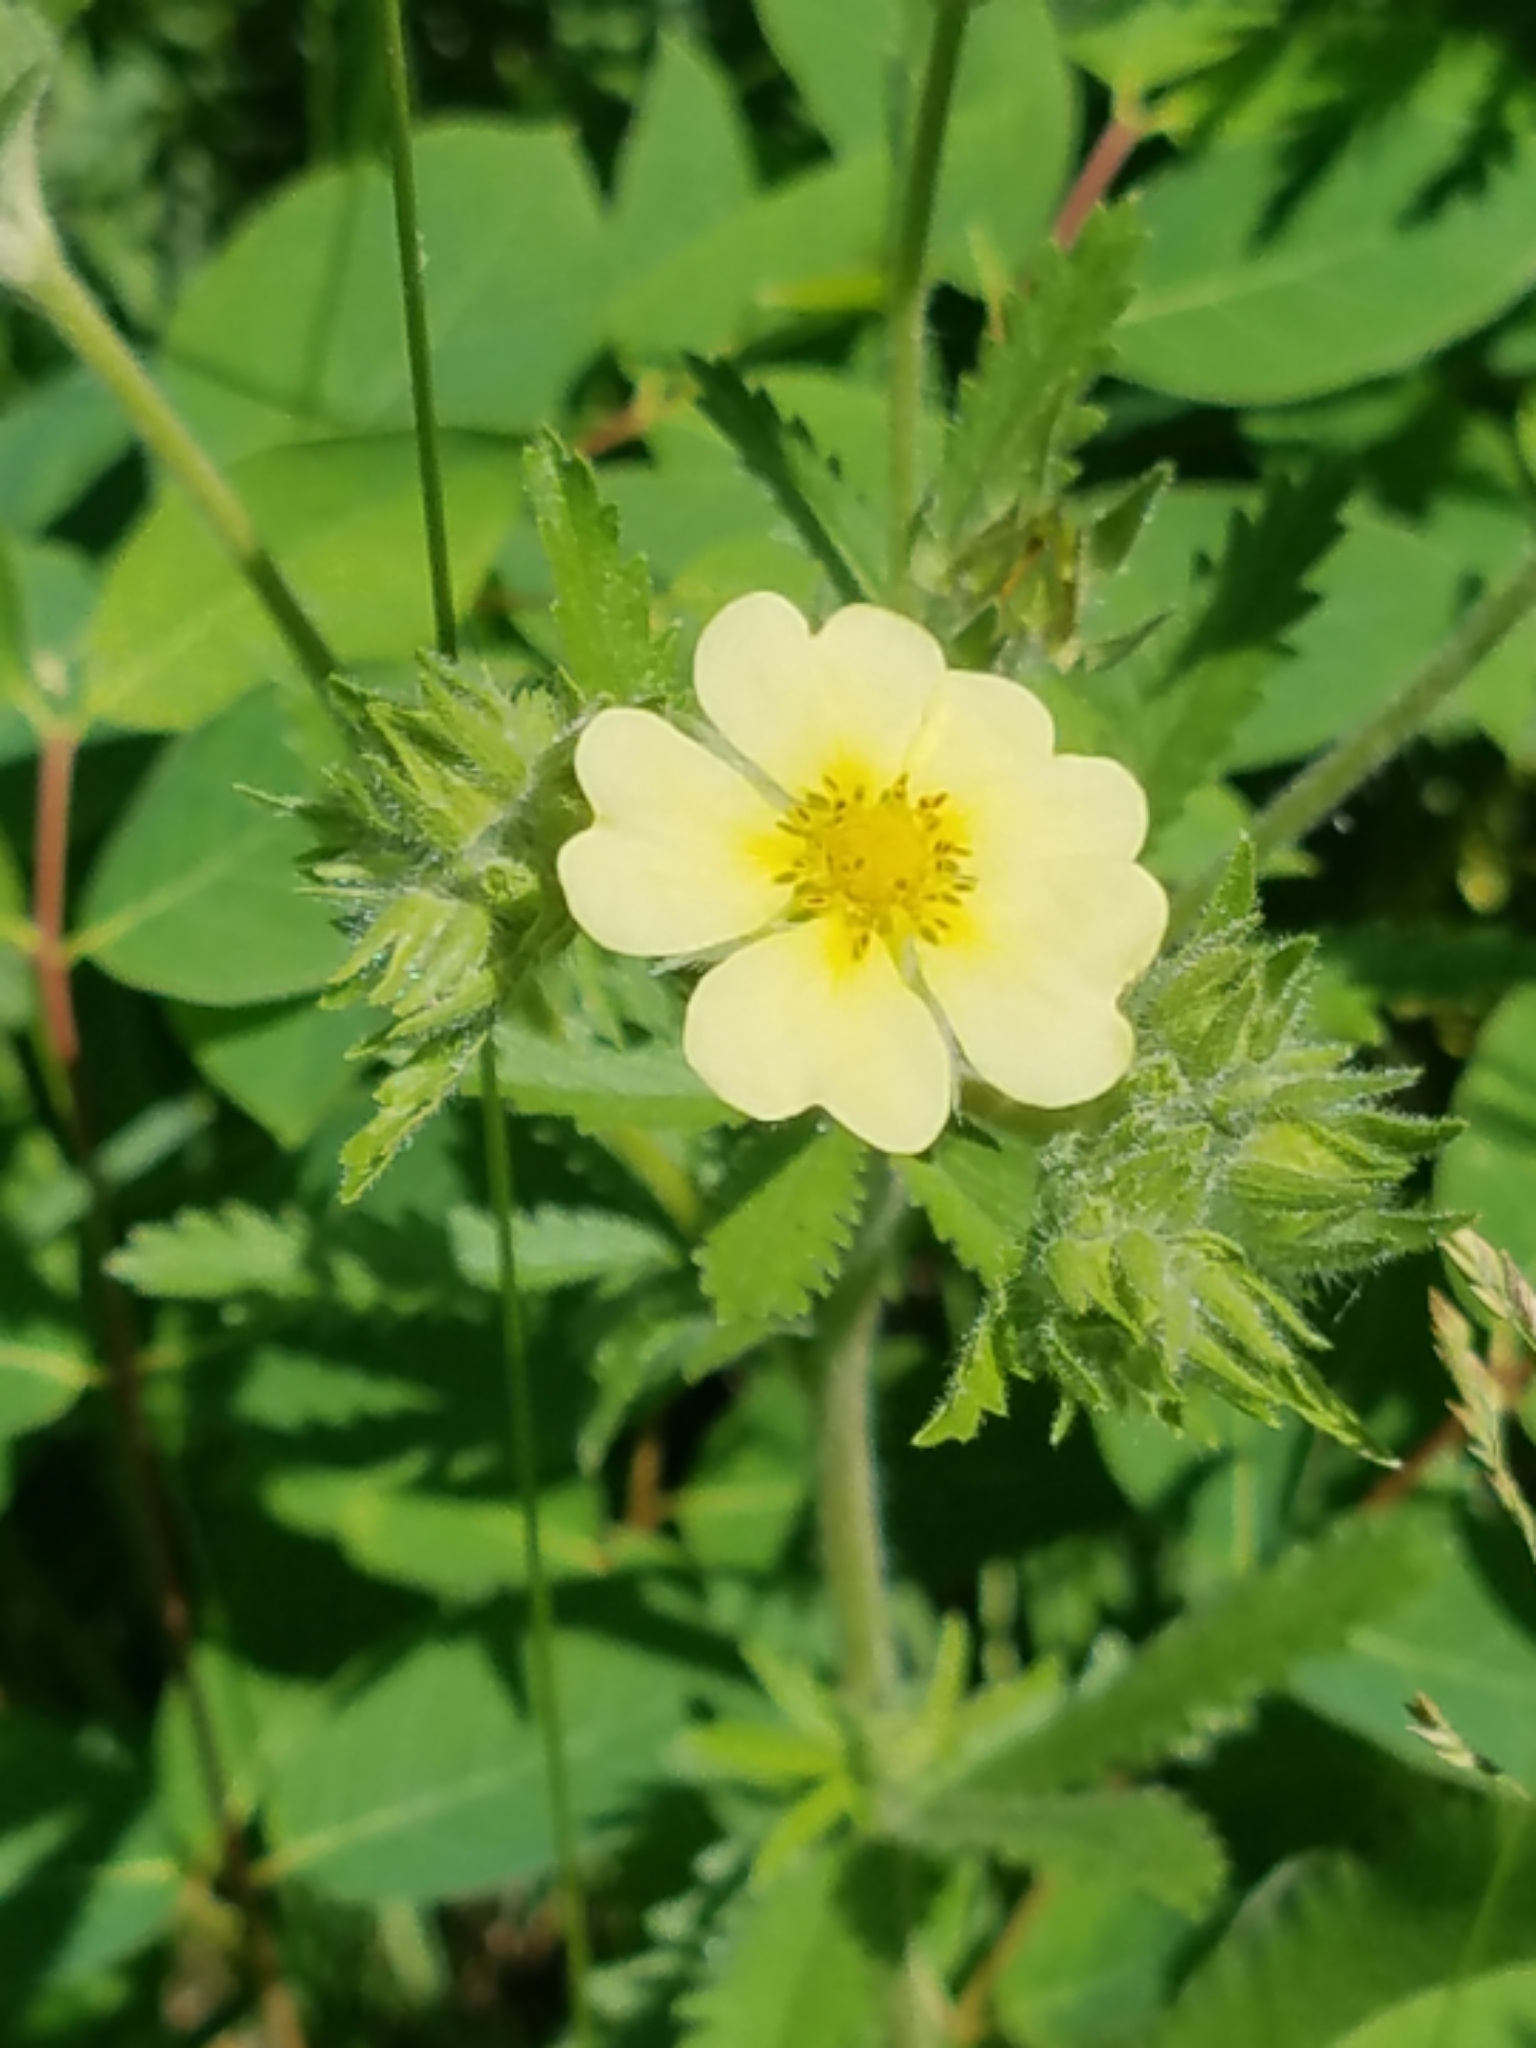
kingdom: Plantae
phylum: Tracheophyta
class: Magnoliopsida
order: Rosales
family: Rosaceae
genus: Potentilla
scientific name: Potentilla recta
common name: Sulphur cinquefoil
